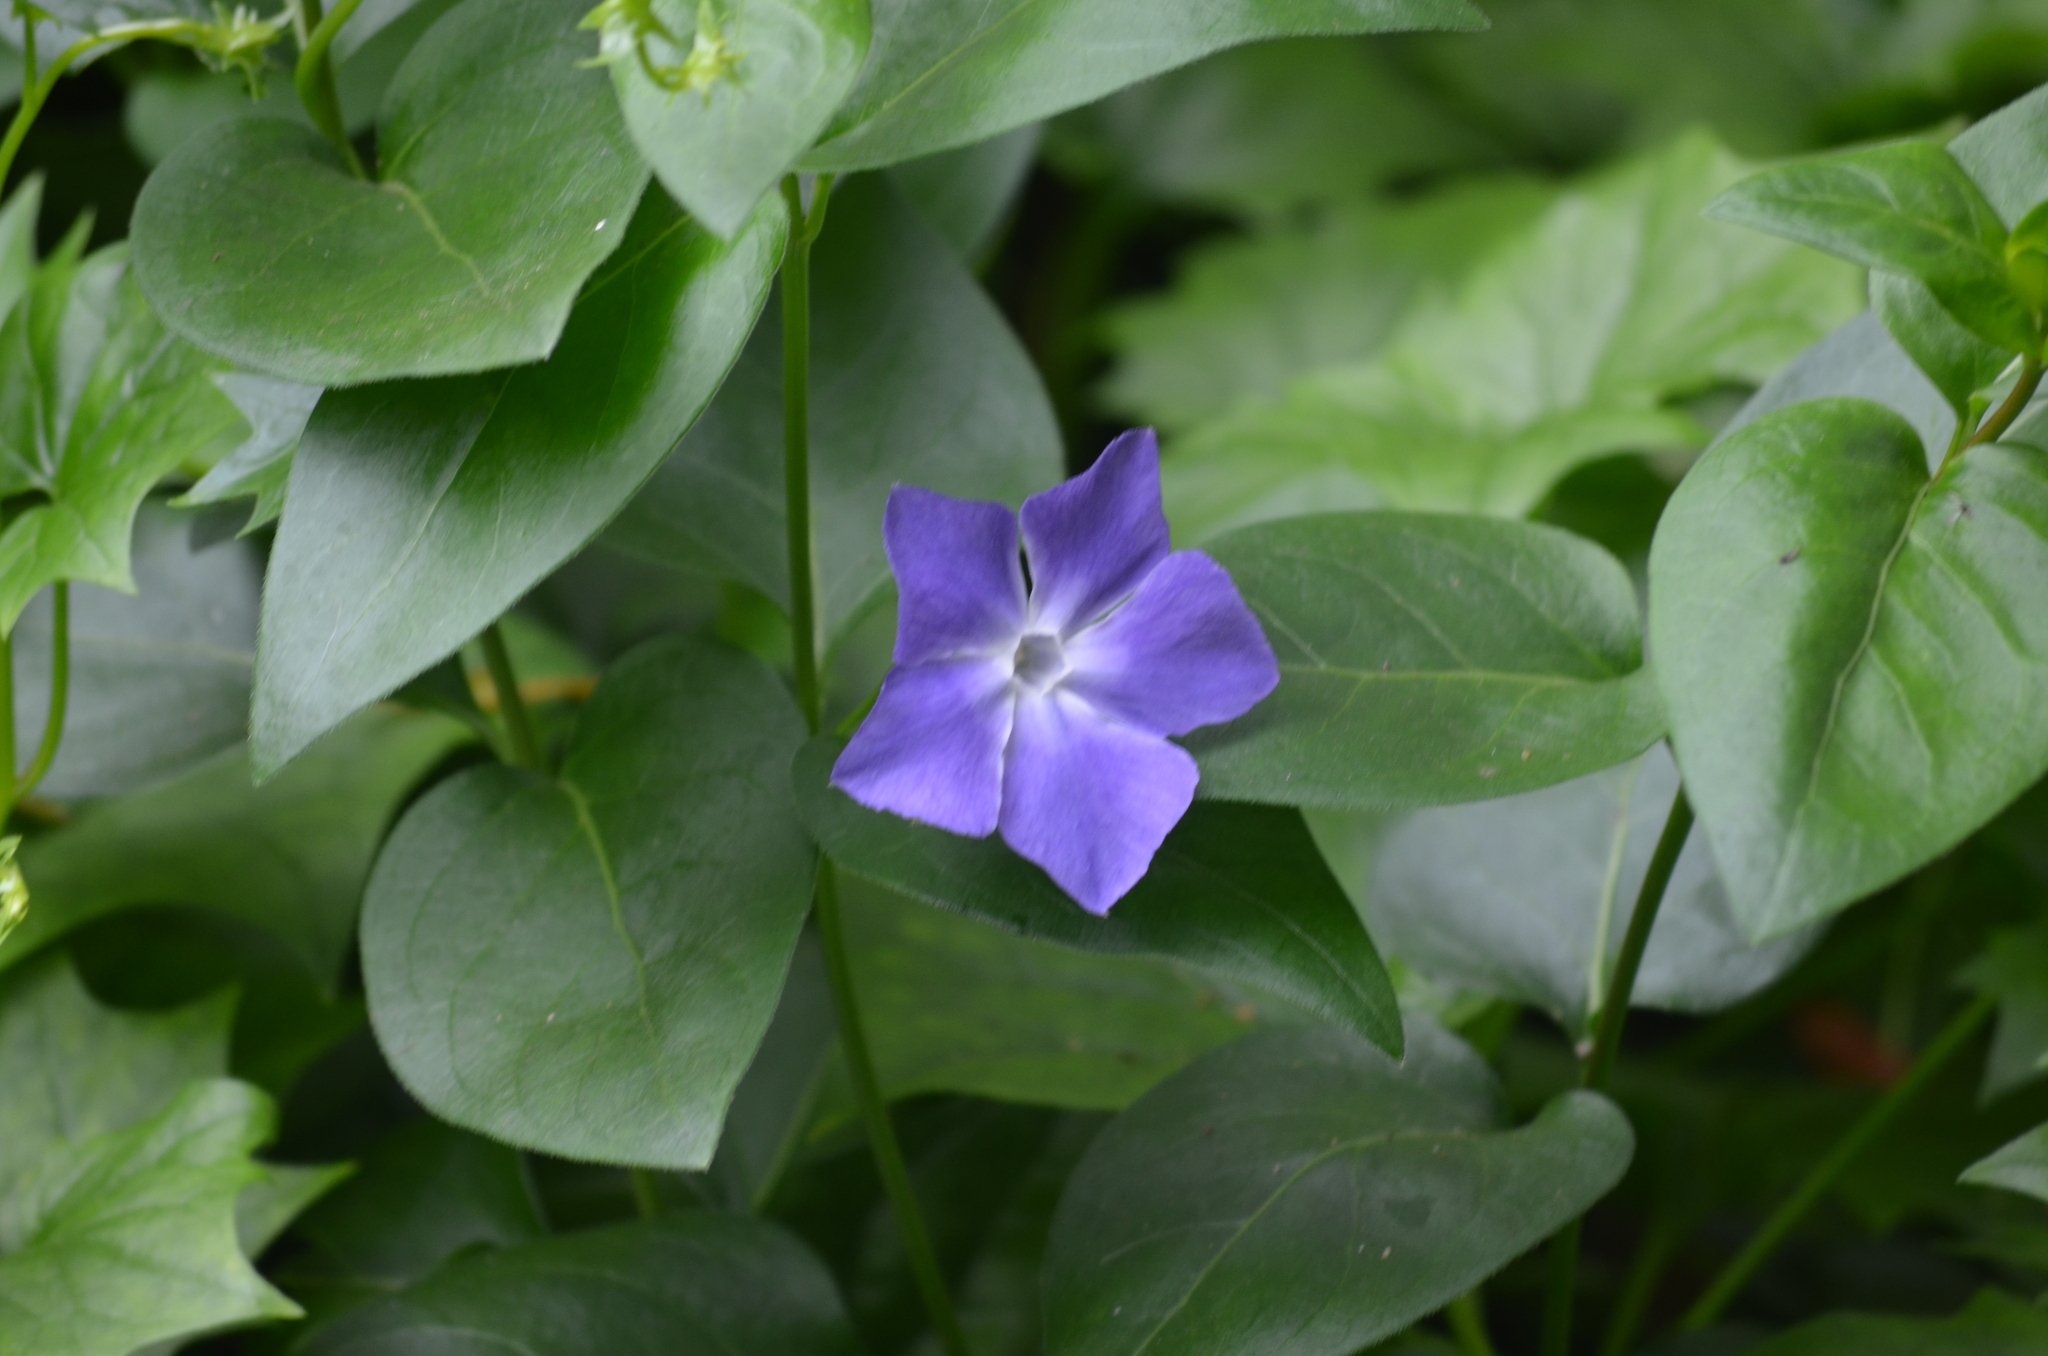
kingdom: Plantae
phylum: Tracheophyta
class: Magnoliopsida
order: Gentianales
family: Apocynaceae
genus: Vinca
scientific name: Vinca major
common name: Greater periwinkle
